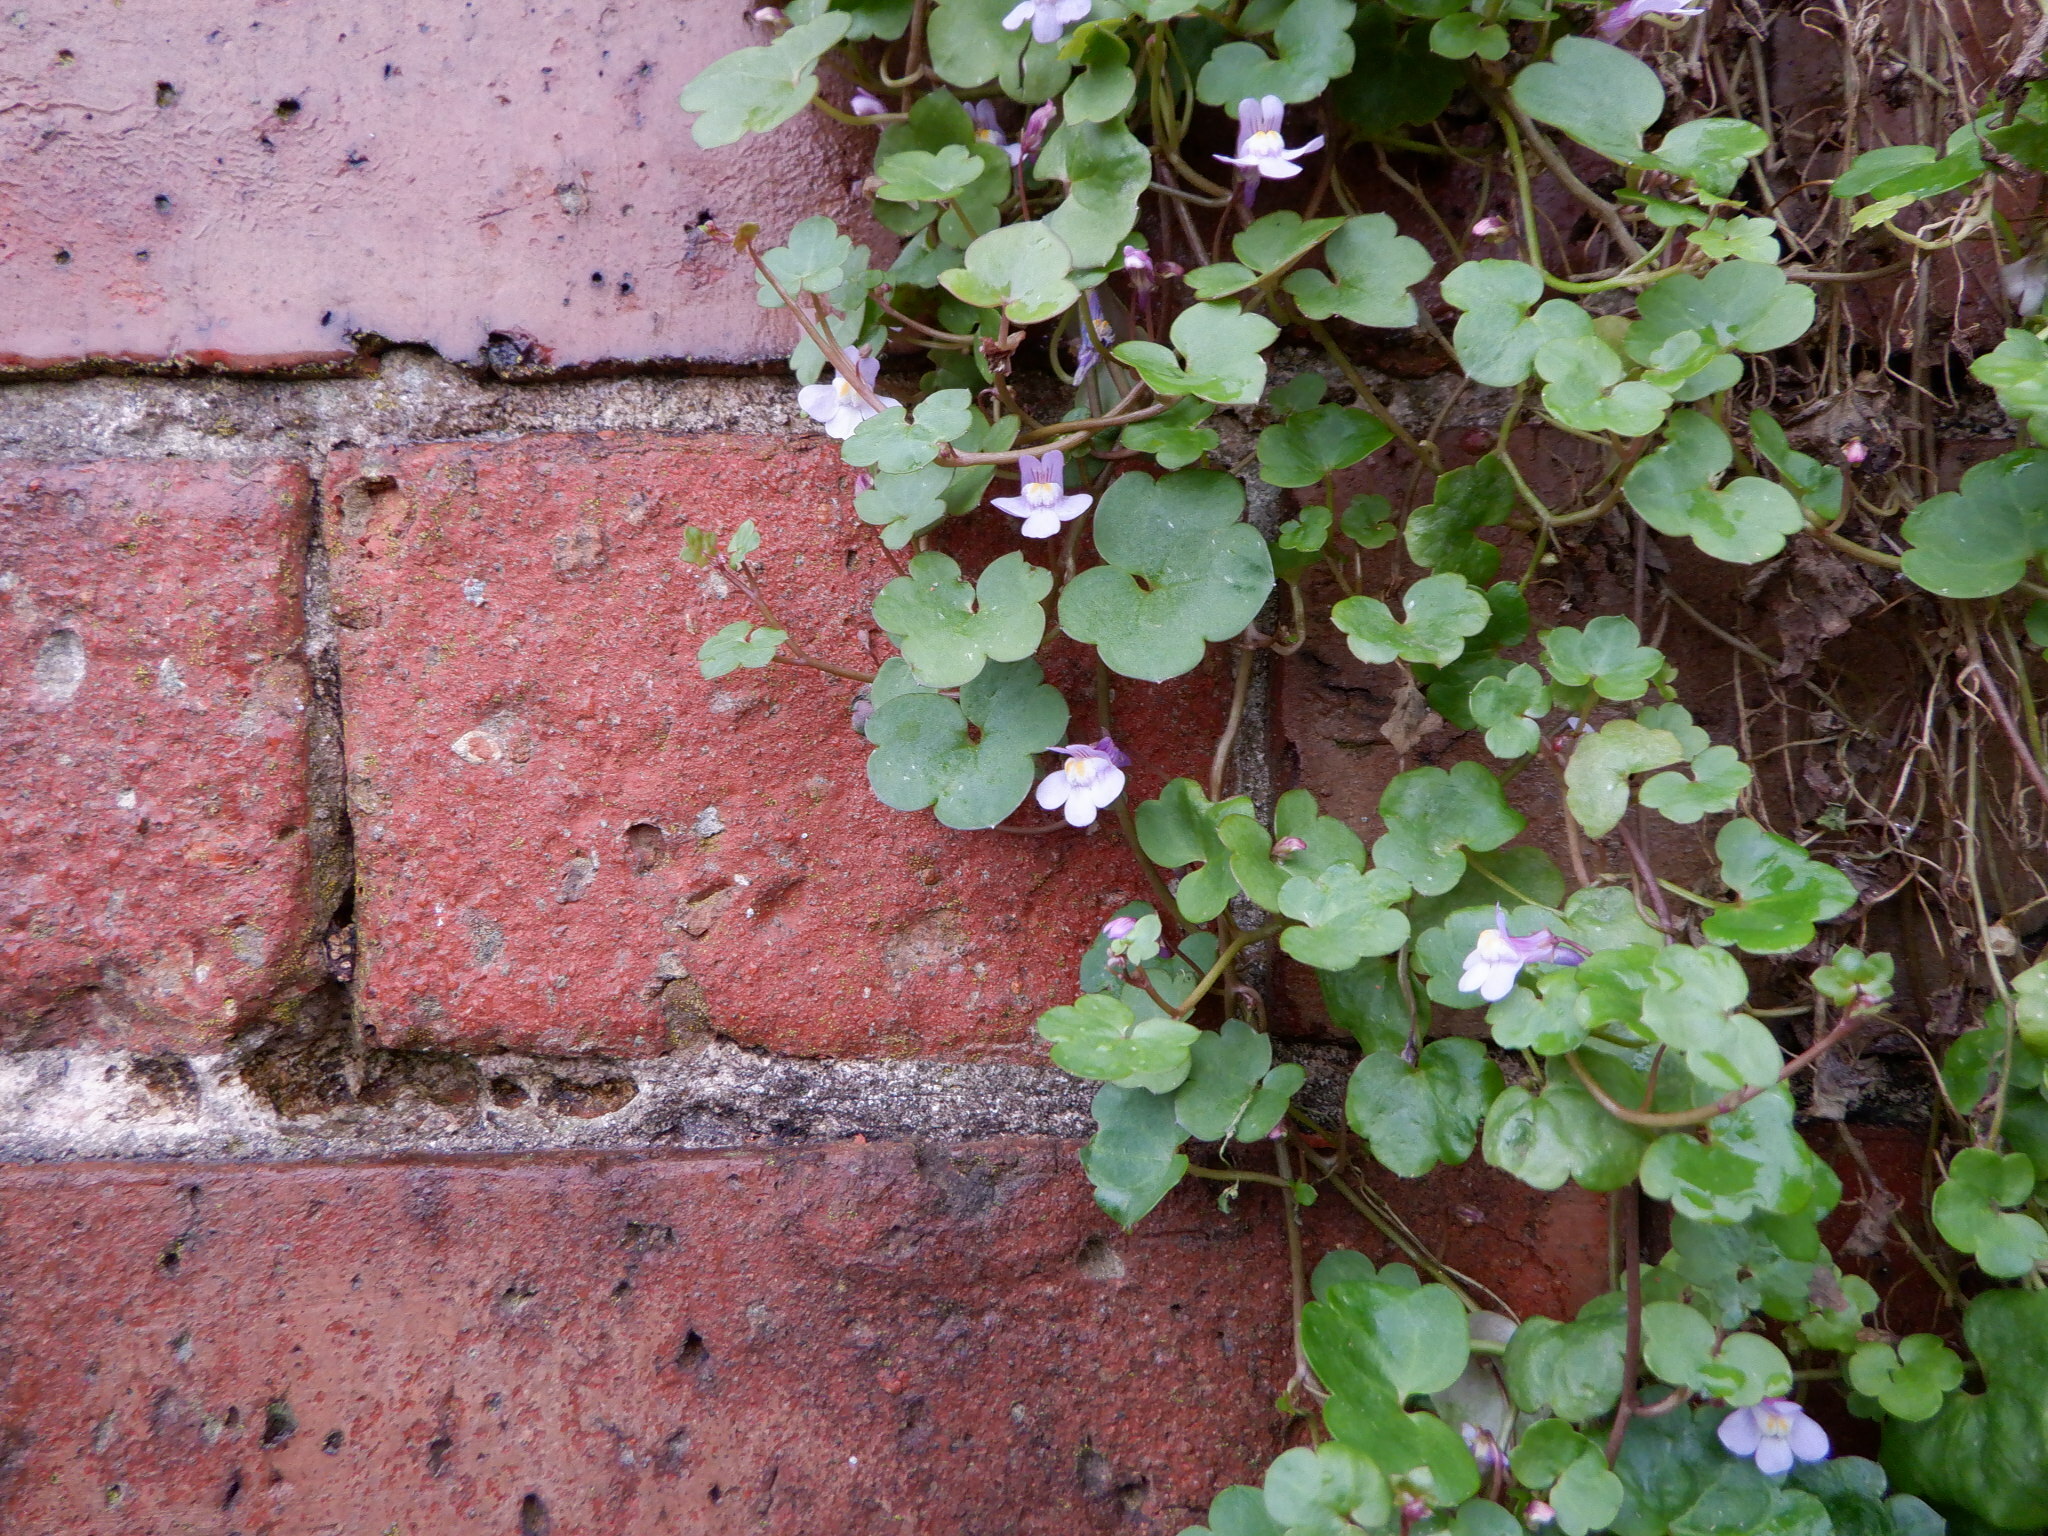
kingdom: Plantae
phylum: Tracheophyta
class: Magnoliopsida
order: Lamiales
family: Plantaginaceae
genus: Cymbalaria
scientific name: Cymbalaria muralis
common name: Ivy-leaved toadflax
